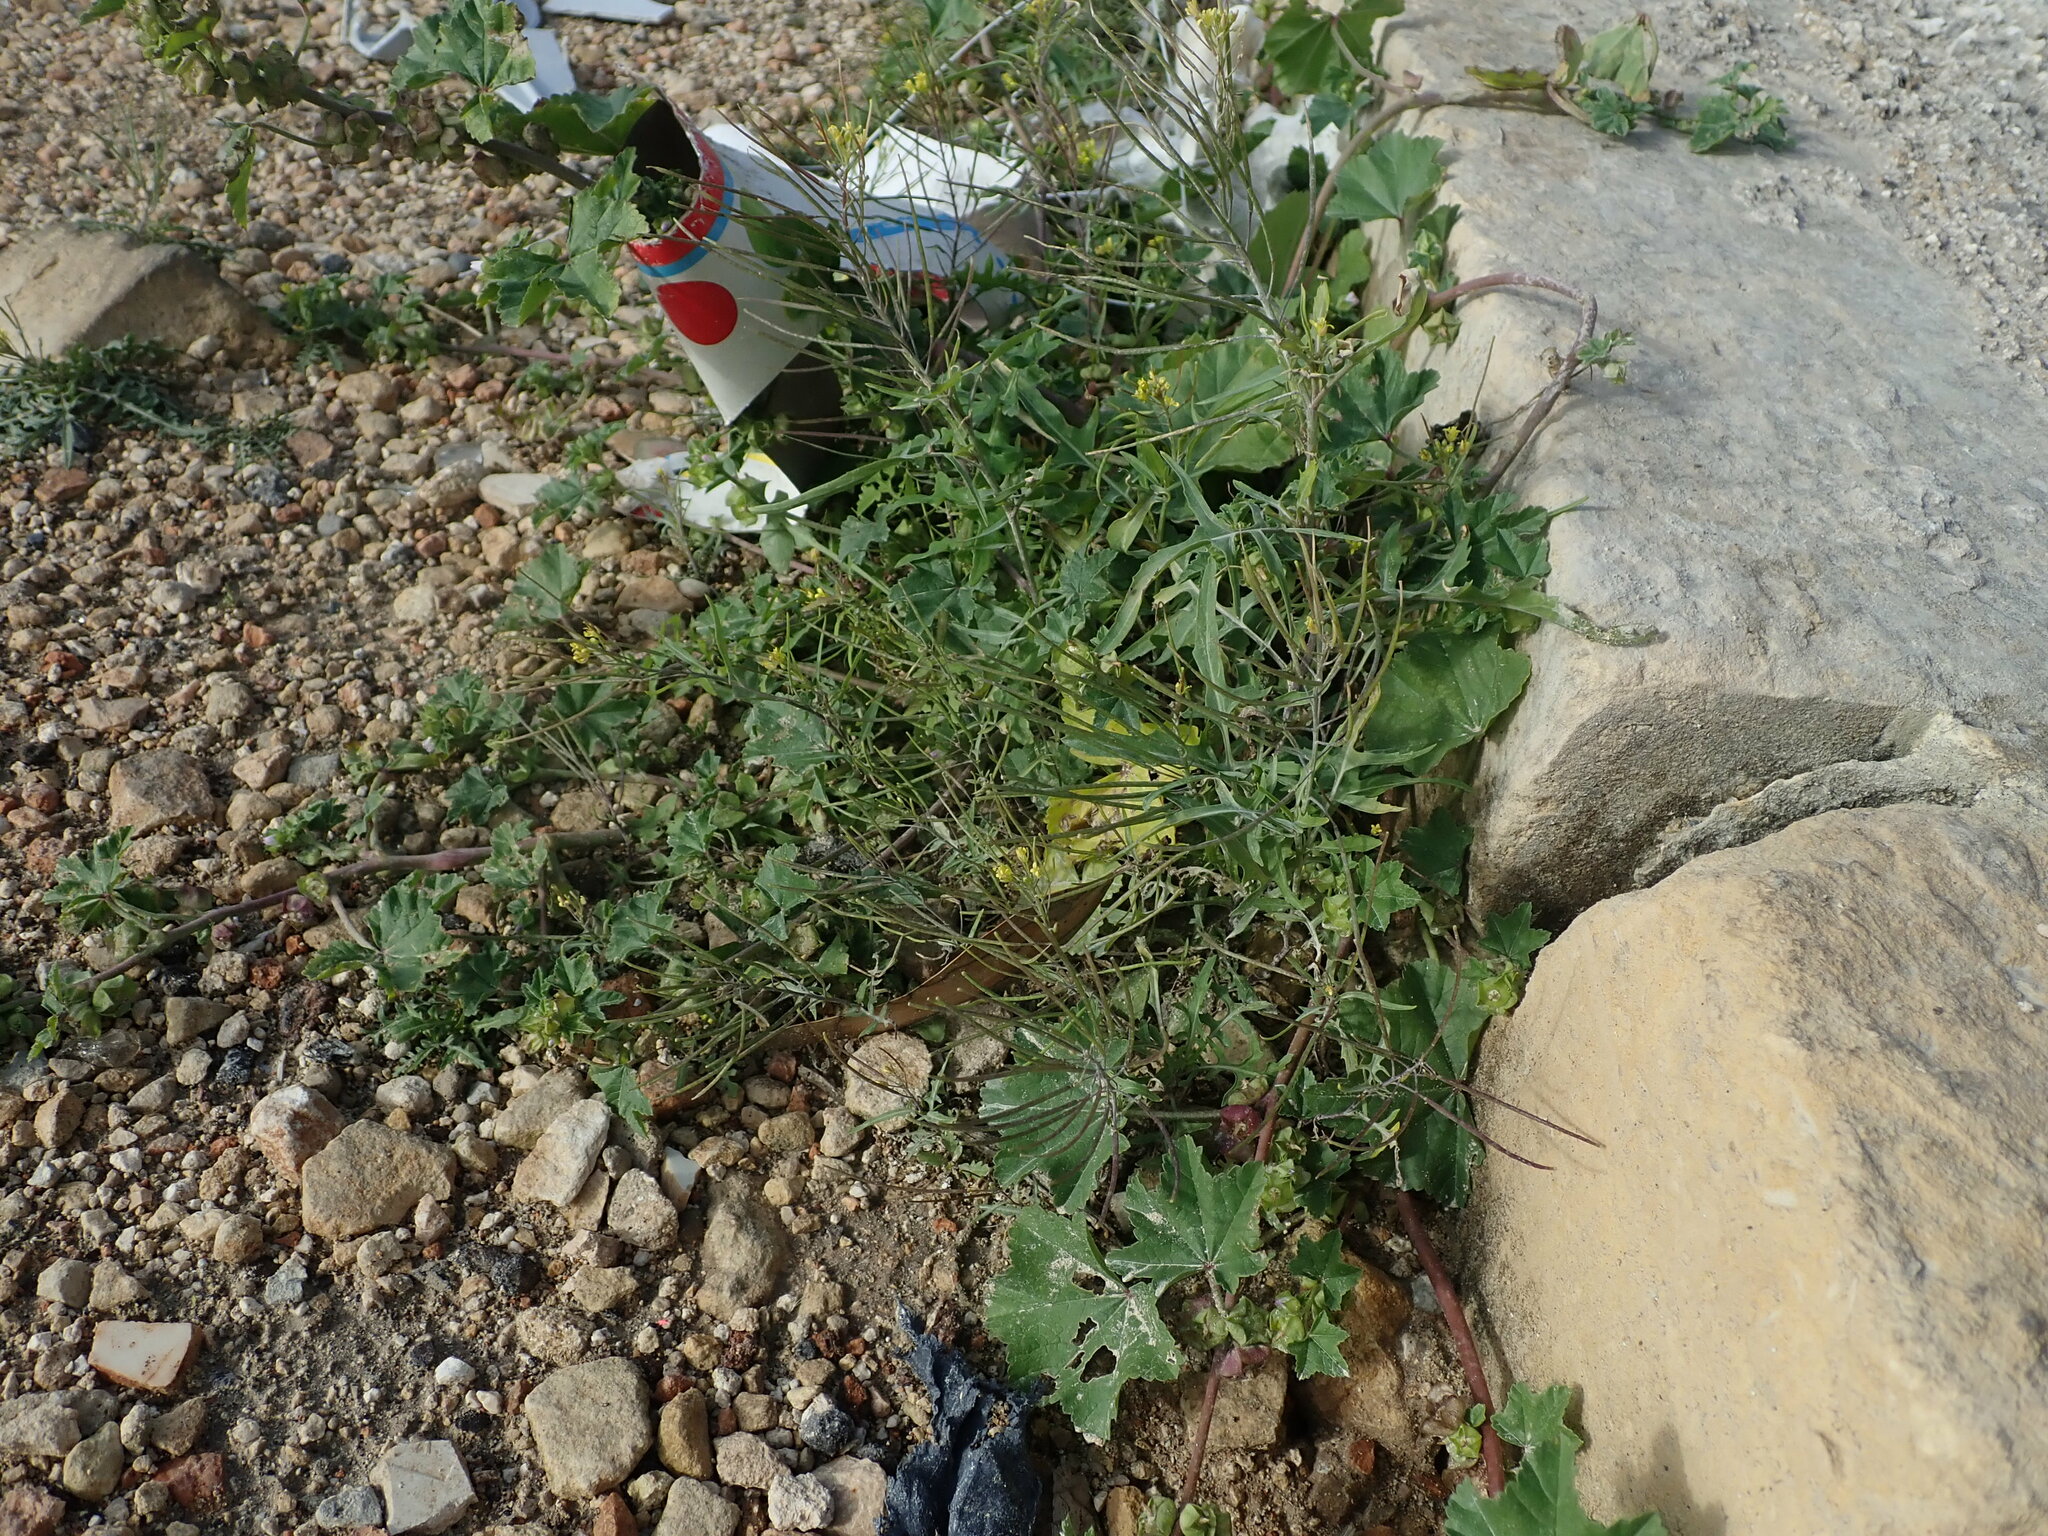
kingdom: Plantae
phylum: Tracheophyta
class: Magnoliopsida
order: Brassicales
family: Brassicaceae
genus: Sisymbrium
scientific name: Sisymbrium irio
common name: London rocket
